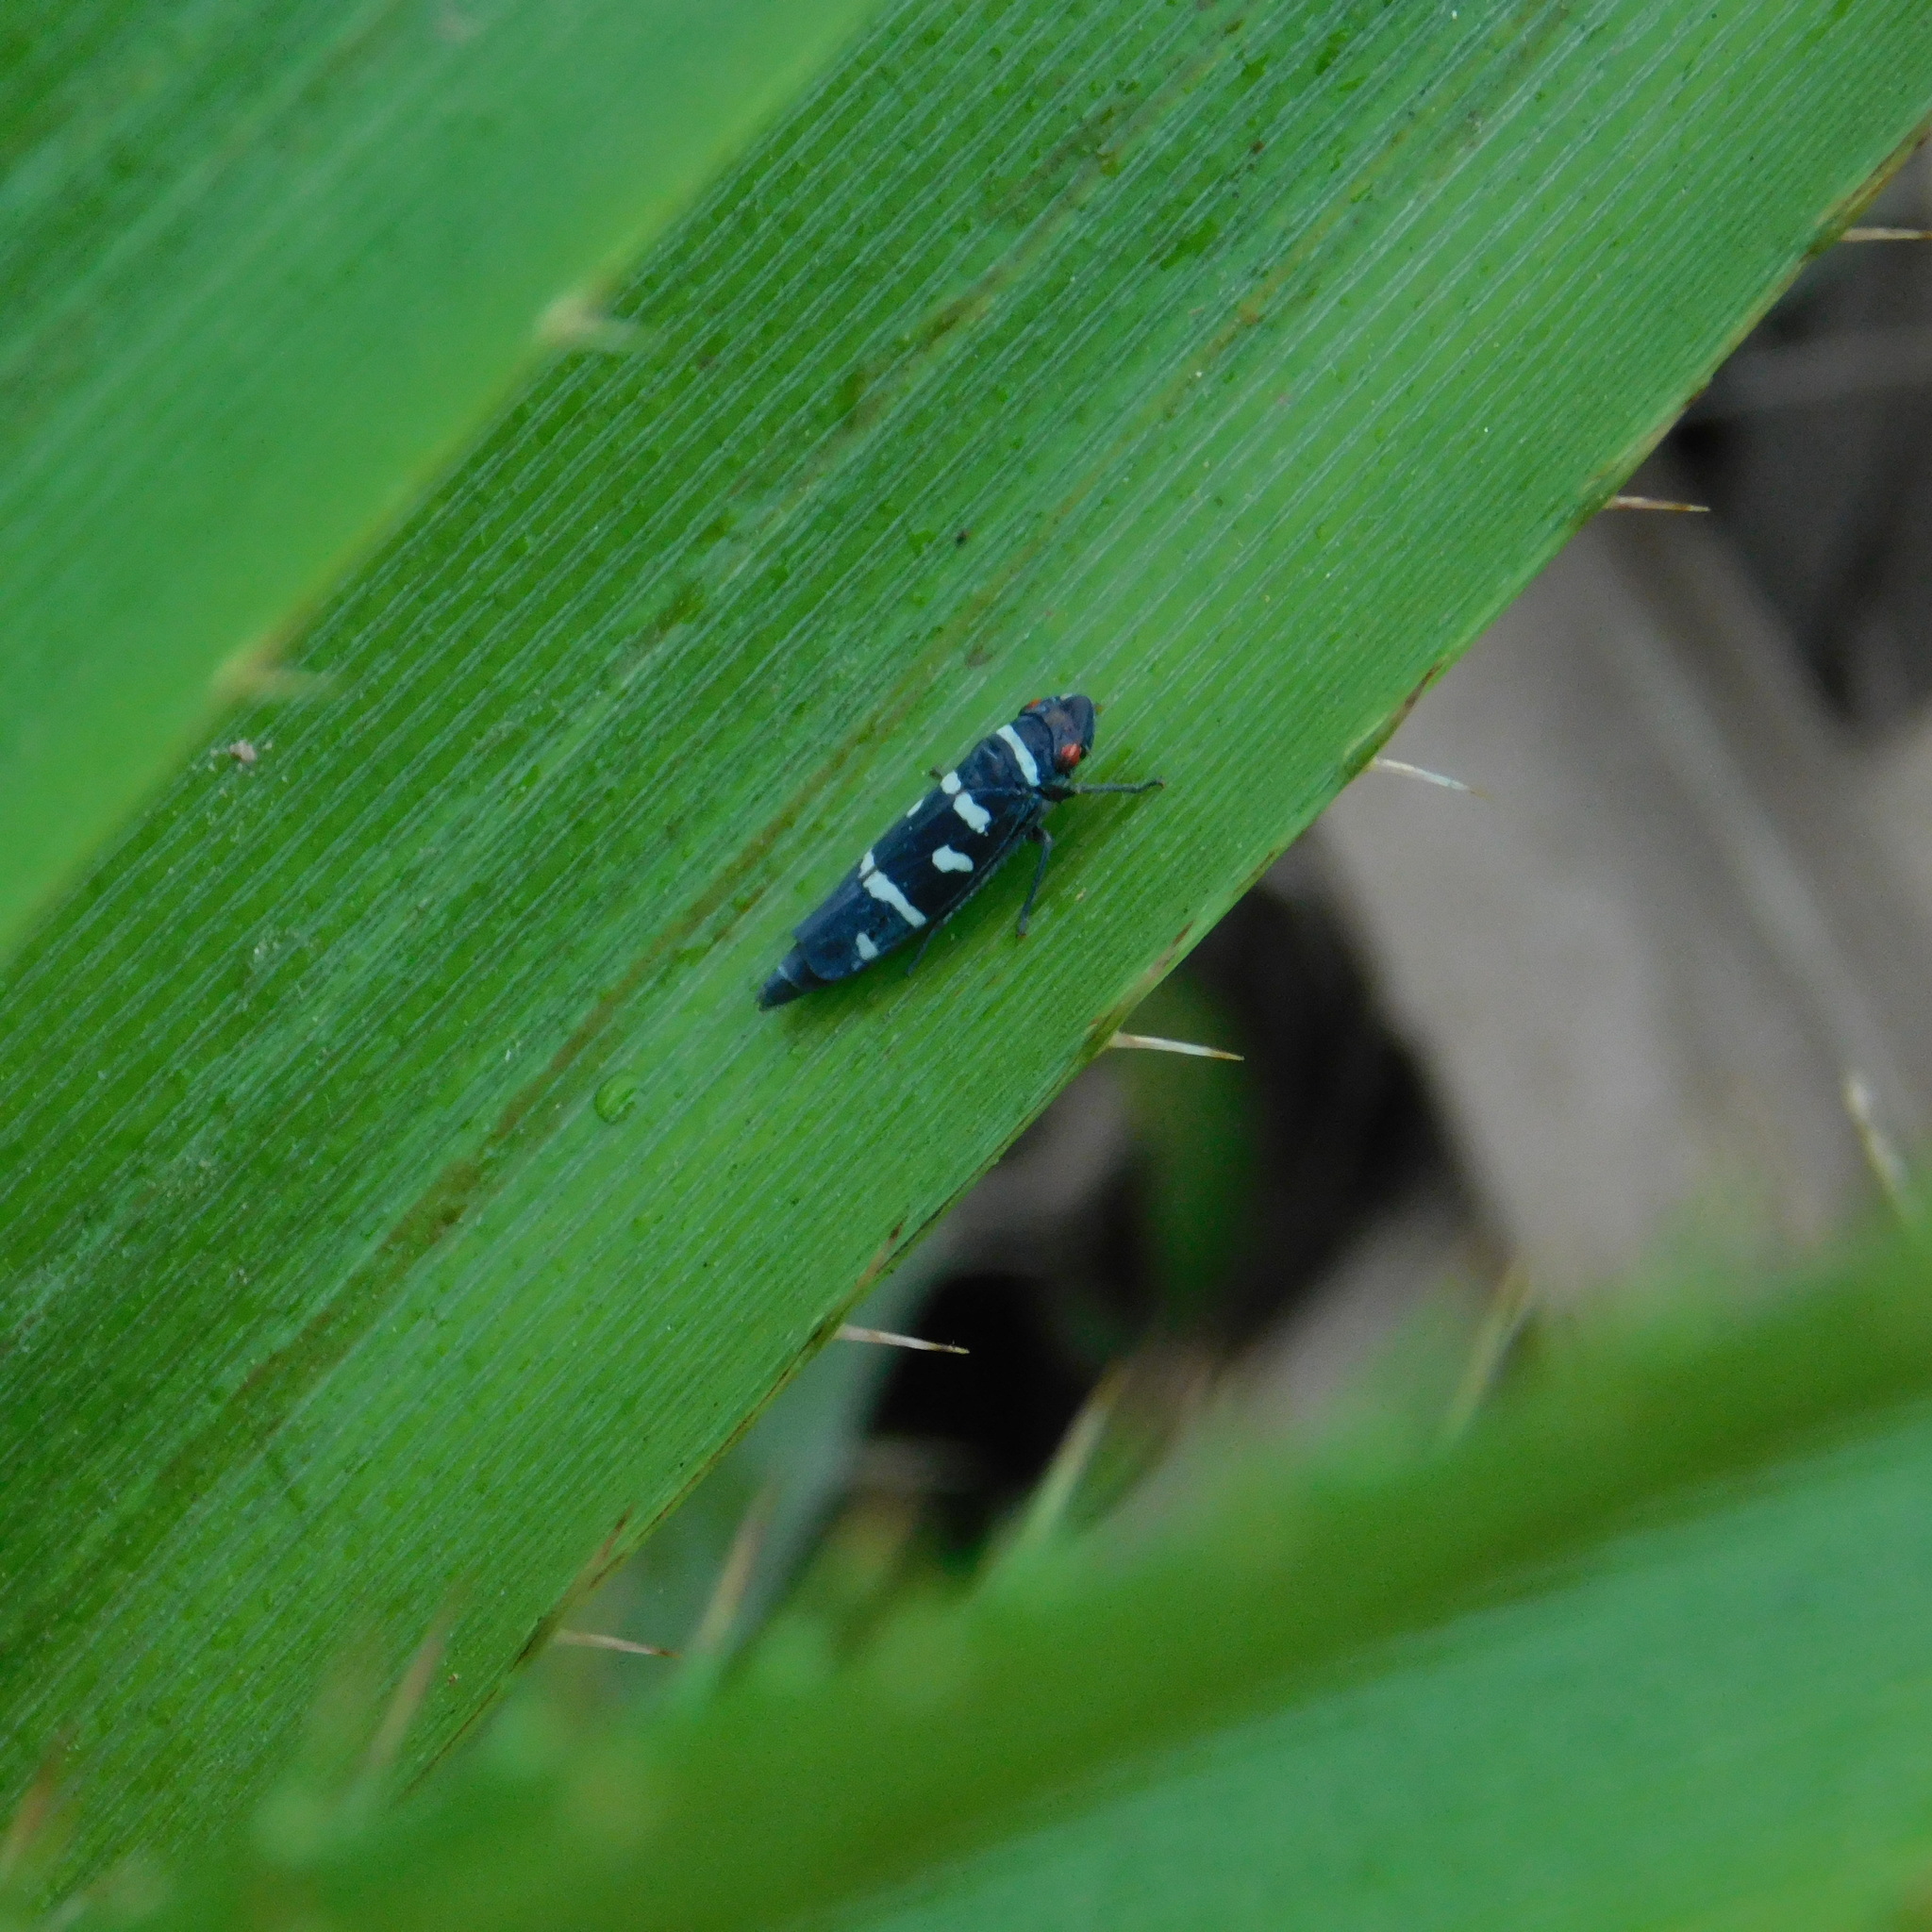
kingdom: Animalia
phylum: Arthropoda
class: Insecta
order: Hemiptera
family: Cicadellidae
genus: Balacha
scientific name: Balacha melanocephala
